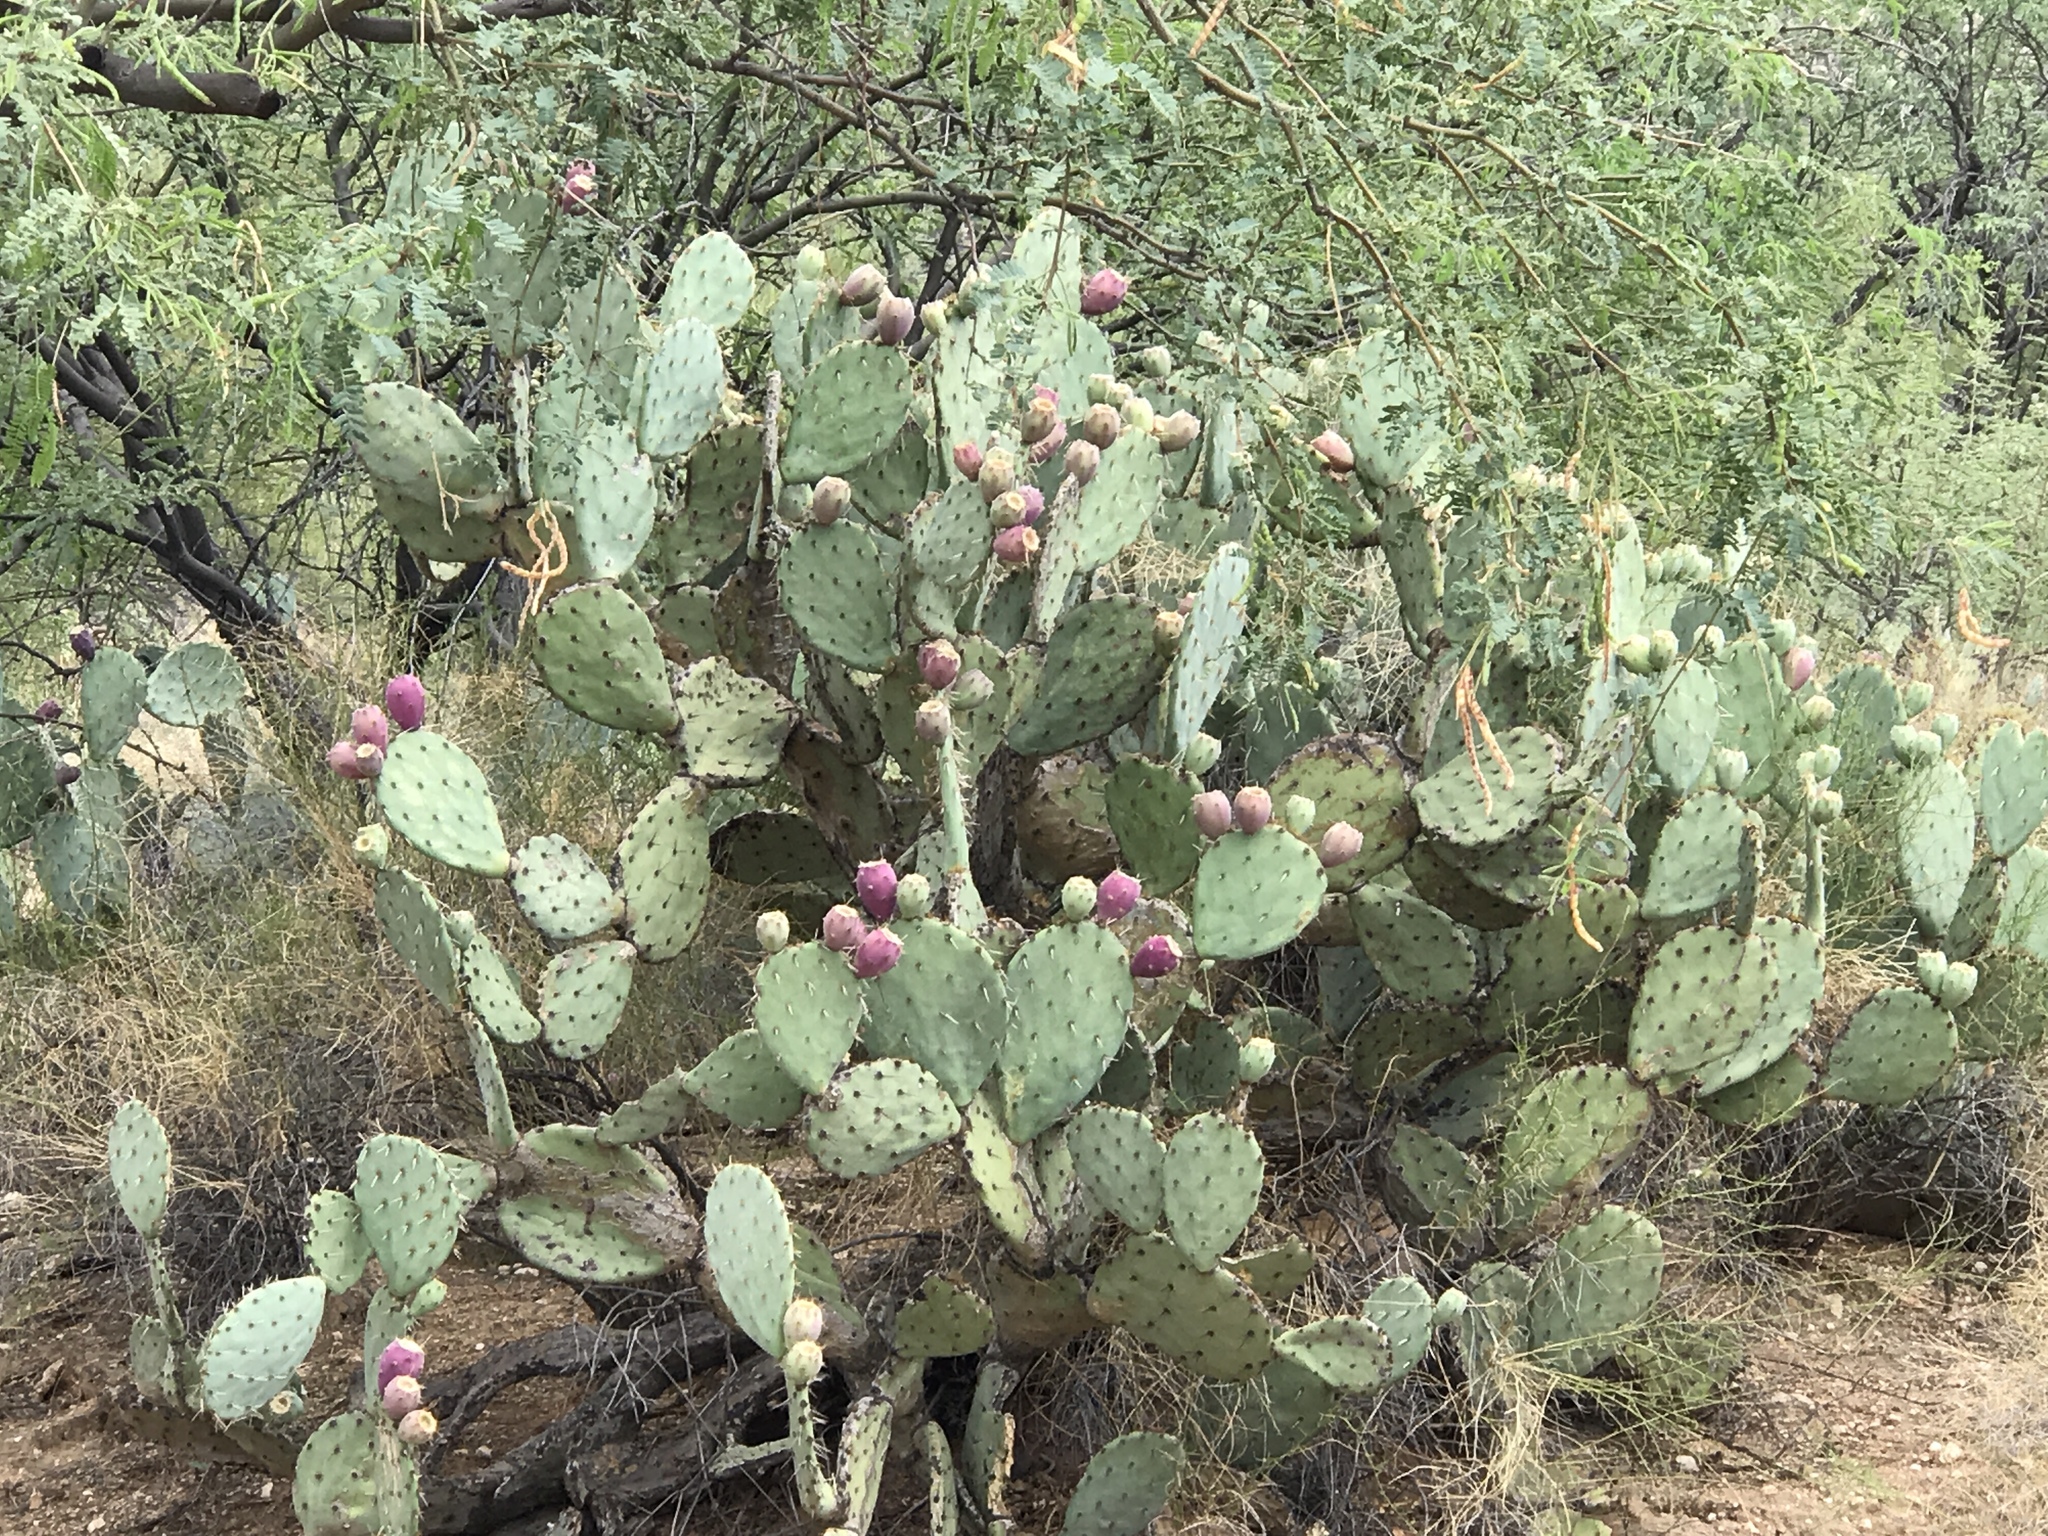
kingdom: Plantae
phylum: Tracheophyta
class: Magnoliopsida
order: Caryophyllales
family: Cactaceae
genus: Opuntia
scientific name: Opuntia engelmannii
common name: Cactus-apple
